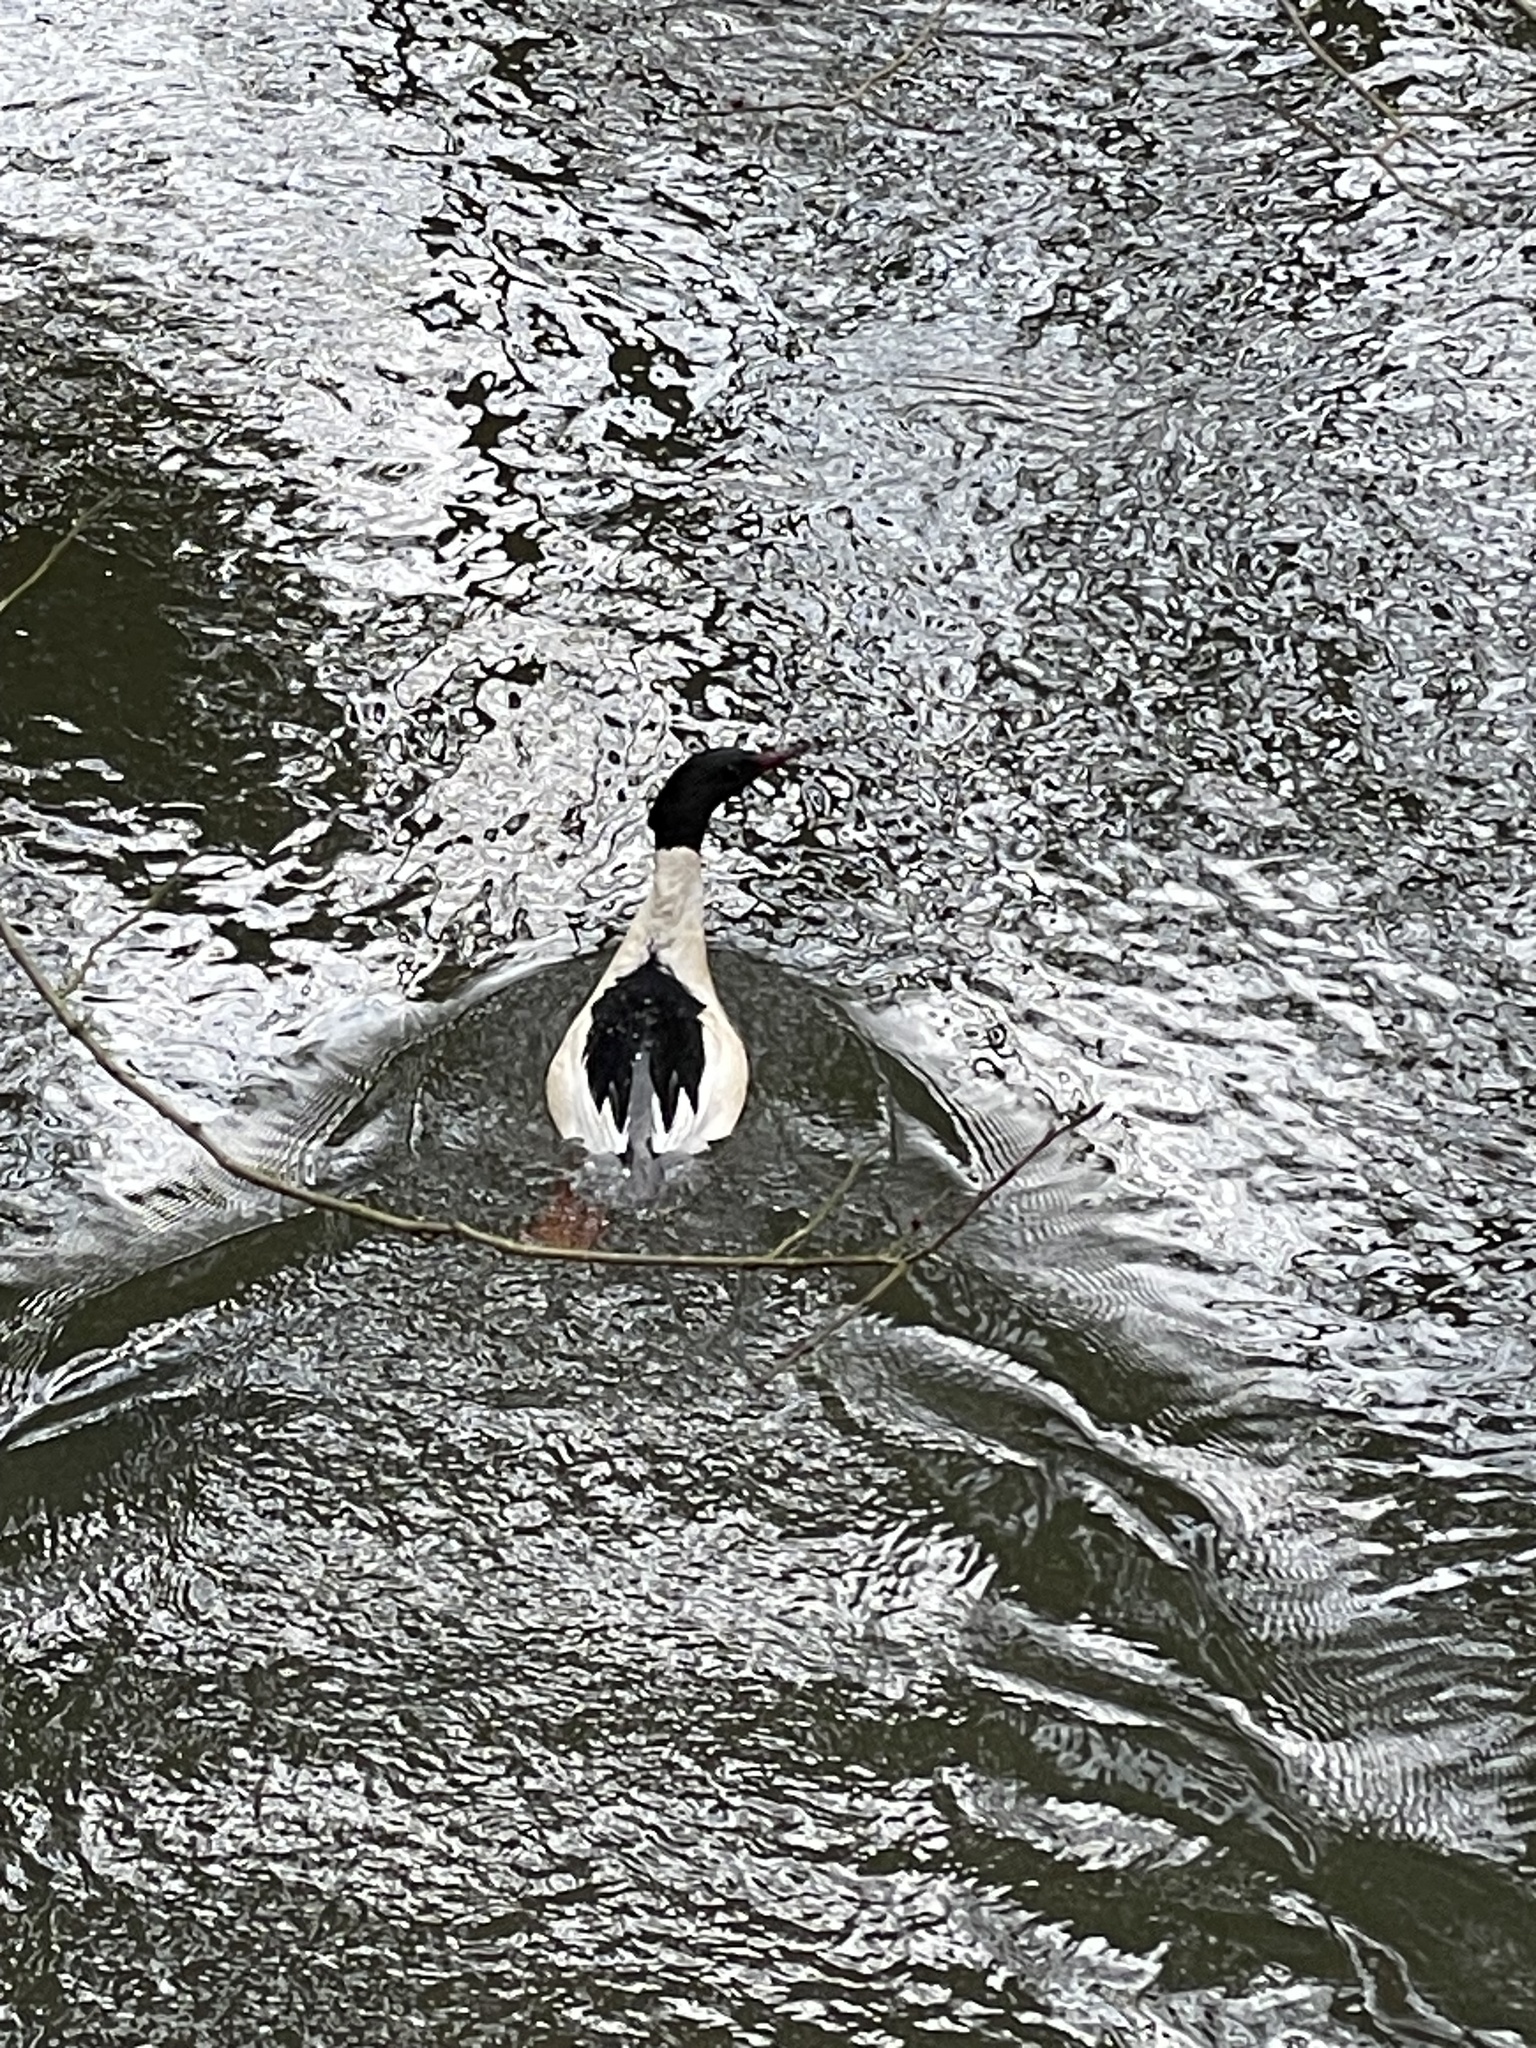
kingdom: Animalia
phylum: Chordata
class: Aves
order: Anseriformes
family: Anatidae
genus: Mergus
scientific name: Mergus merganser
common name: Common merganser
